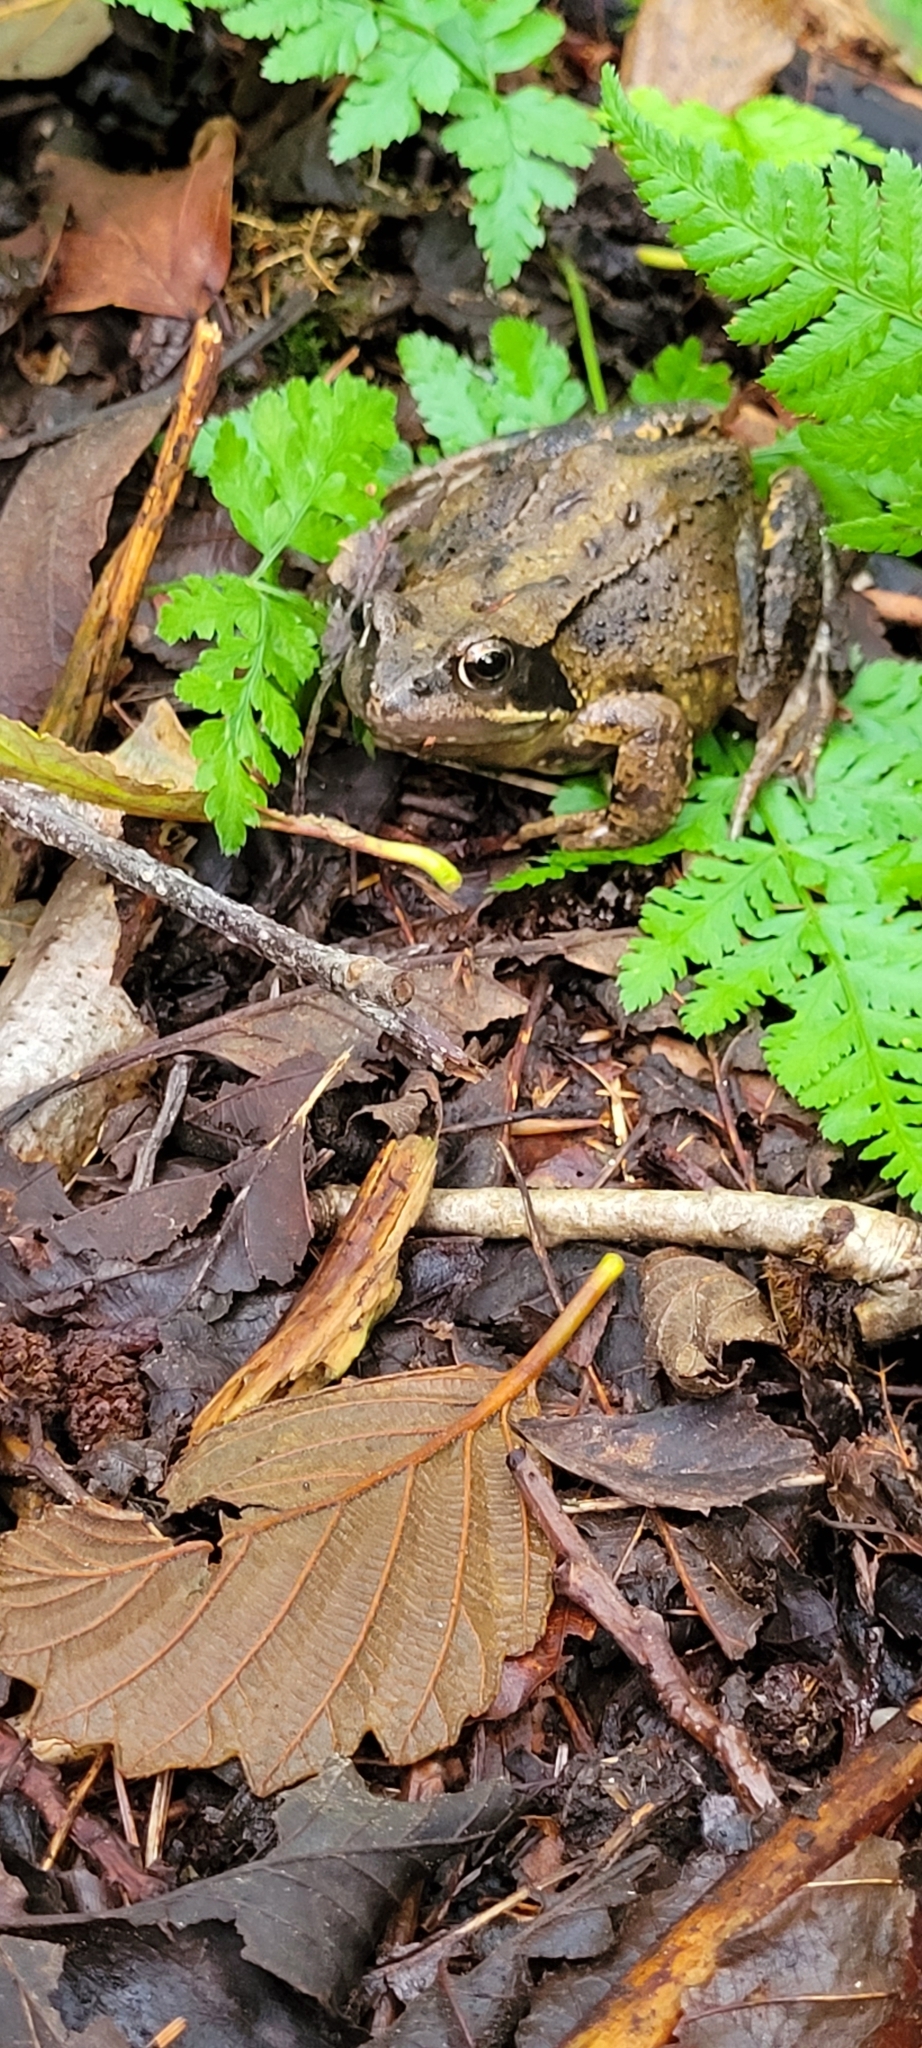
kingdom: Animalia
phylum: Chordata
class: Amphibia
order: Anura
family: Ranidae
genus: Rana
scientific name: Rana temporaria
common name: Common frog
